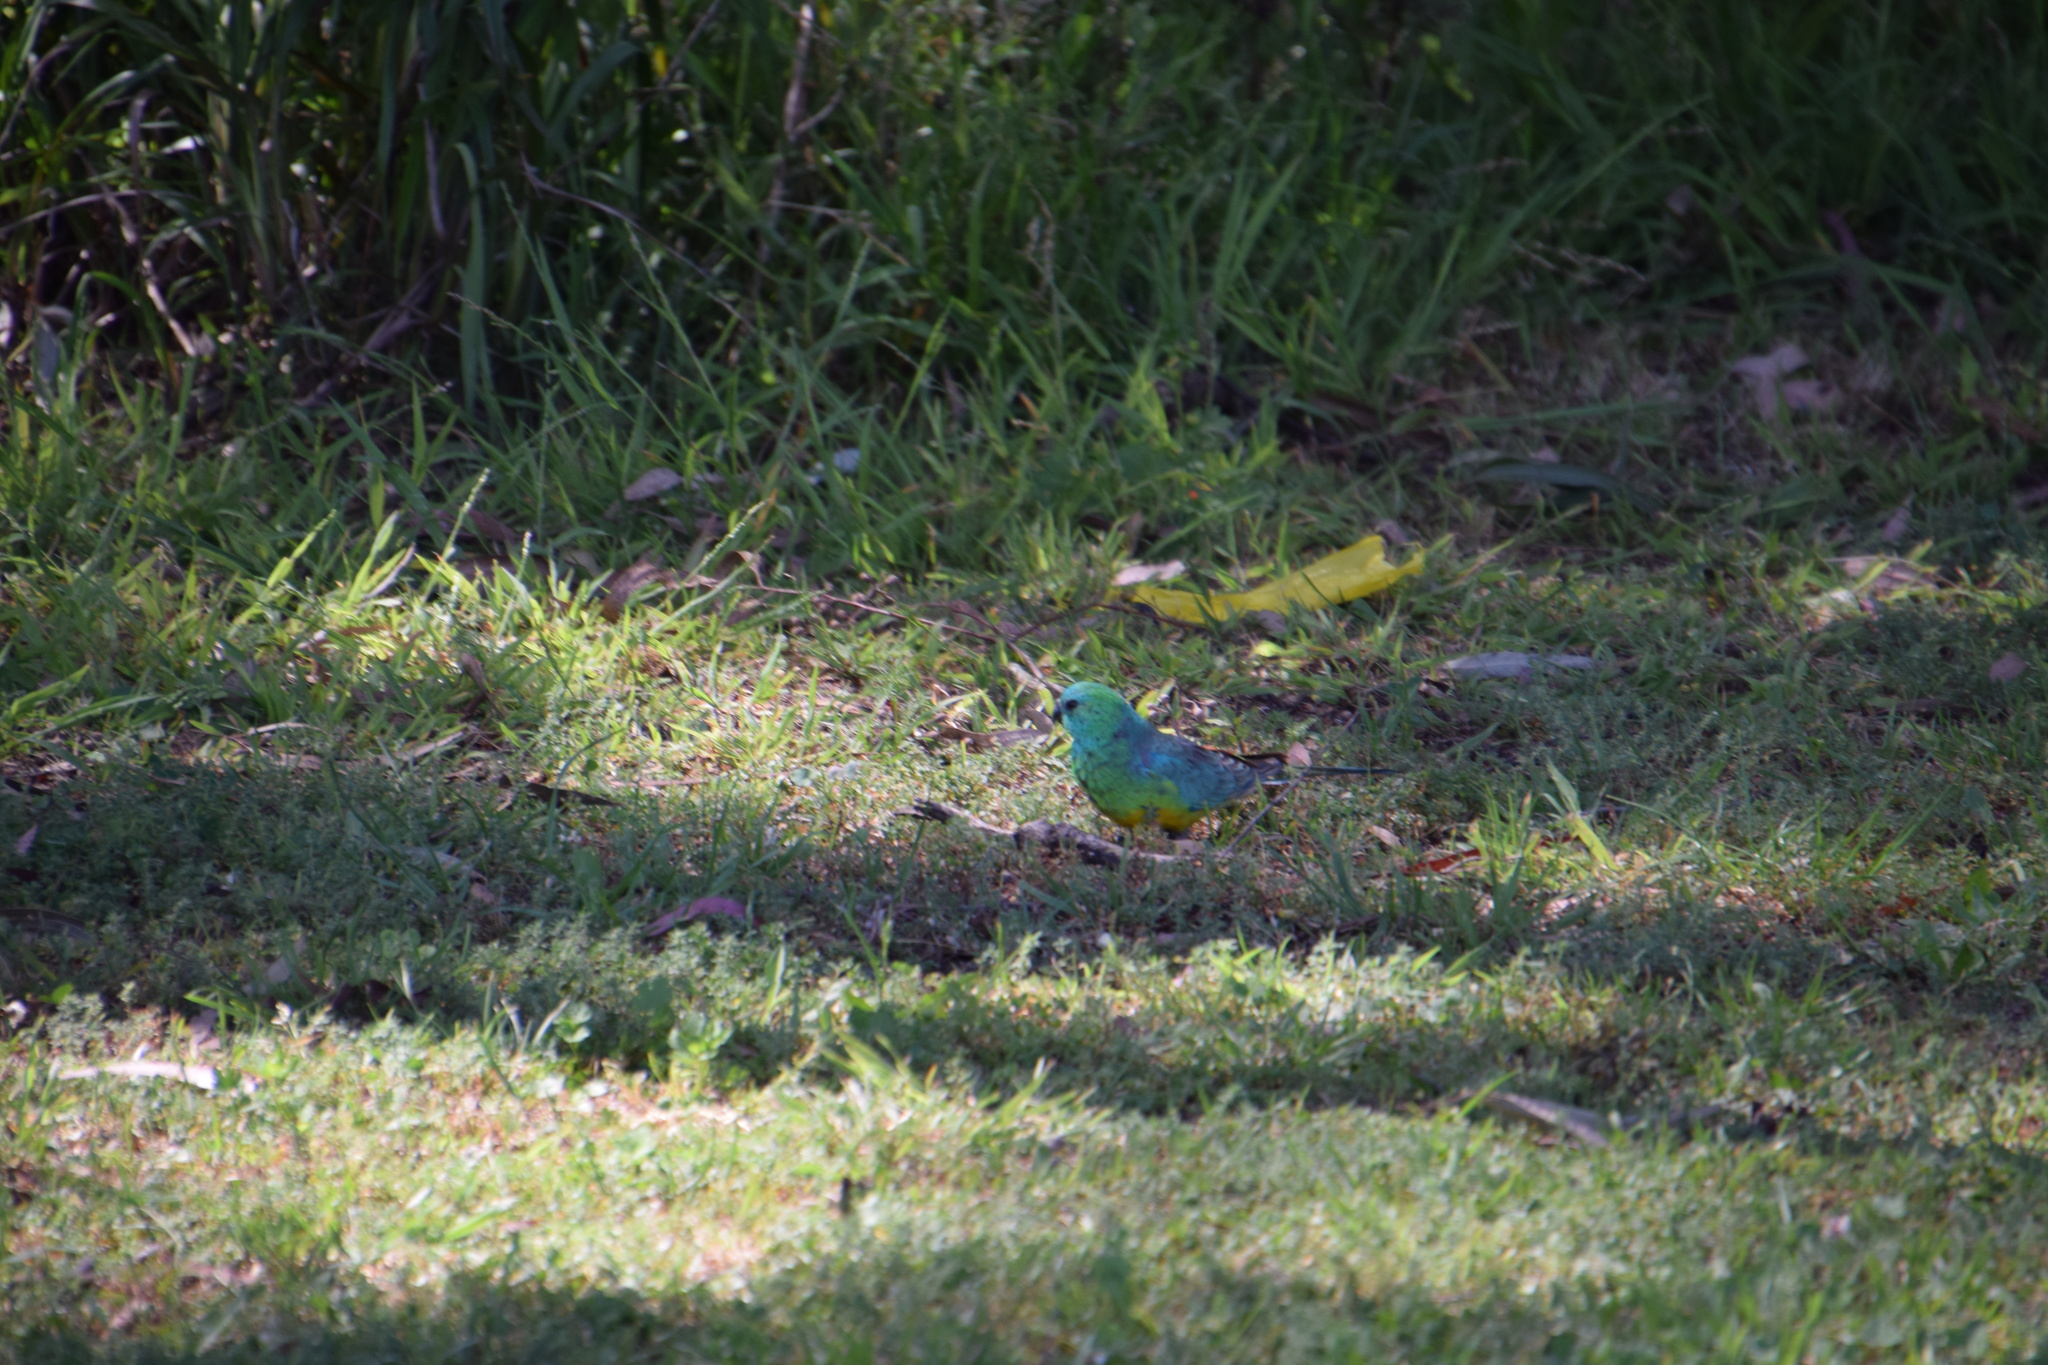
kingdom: Animalia
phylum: Chordata
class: Aves
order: Psittaciformes
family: Psittacidae
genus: Psephotus
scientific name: Psephotus haematonotus
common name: Red-rumped parrot
